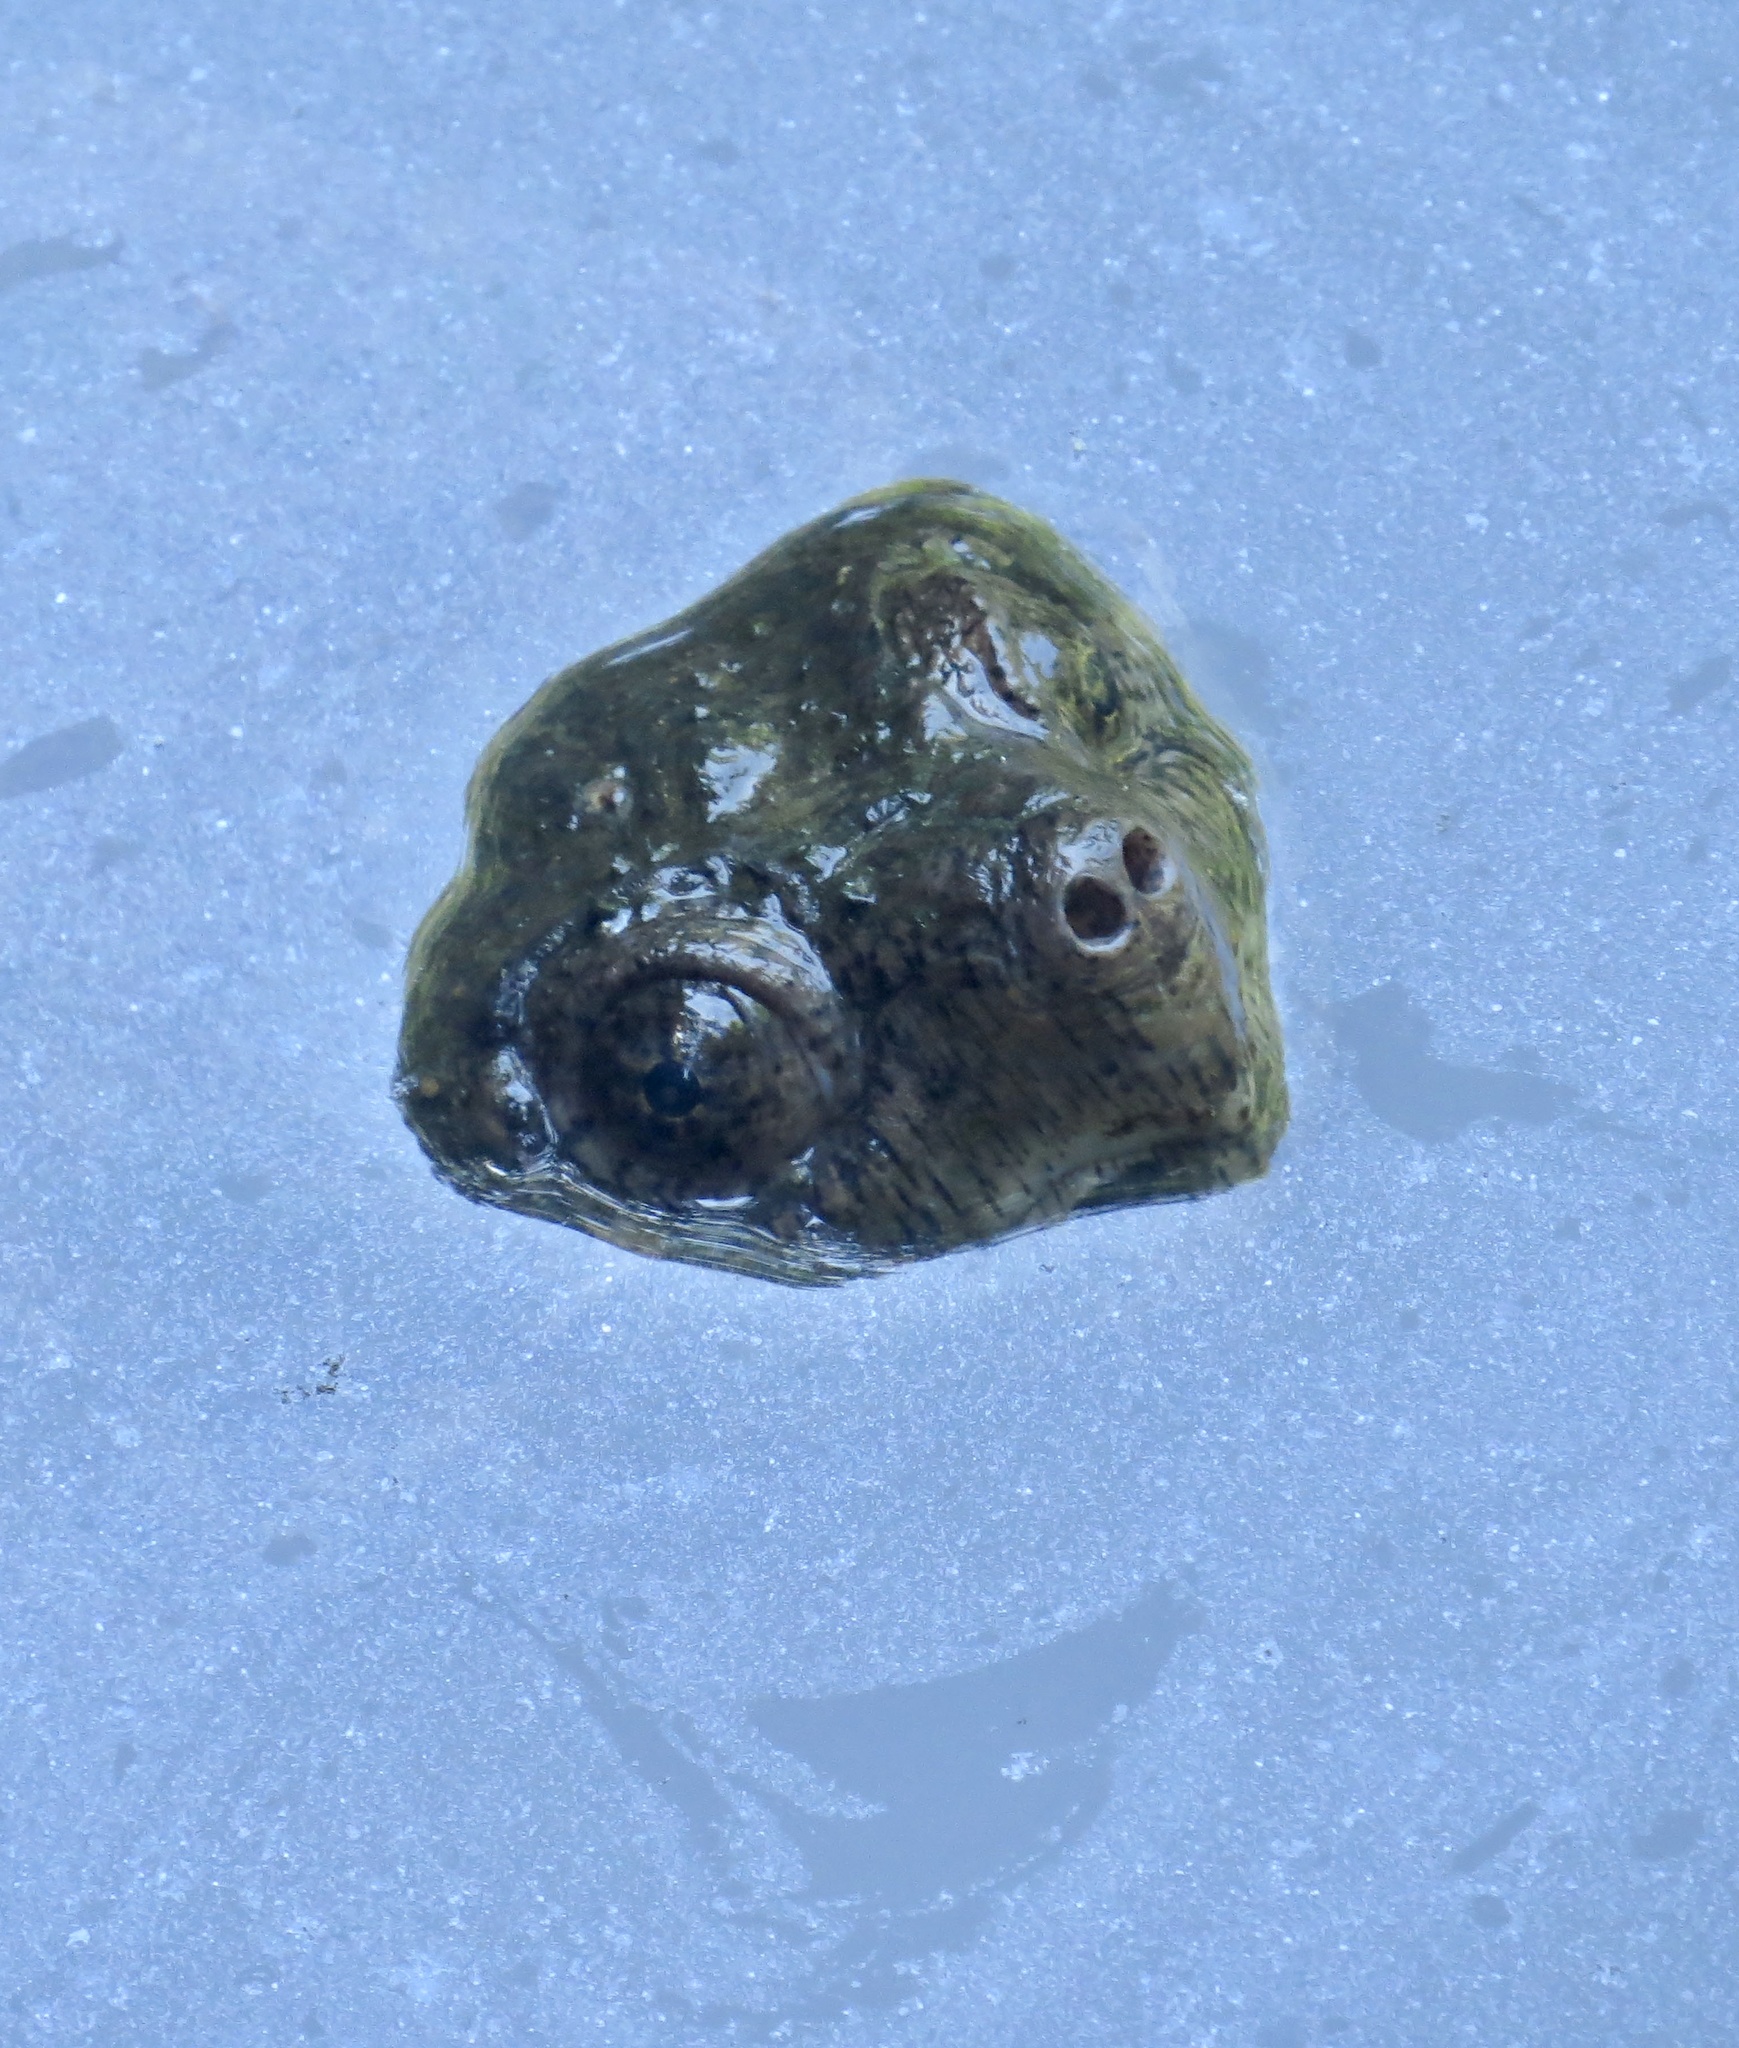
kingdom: Animalia
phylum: Chordata
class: Testudines
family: Chelydridae
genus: Chelydra
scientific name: Chelydra serpentina
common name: Common snapping turtle
